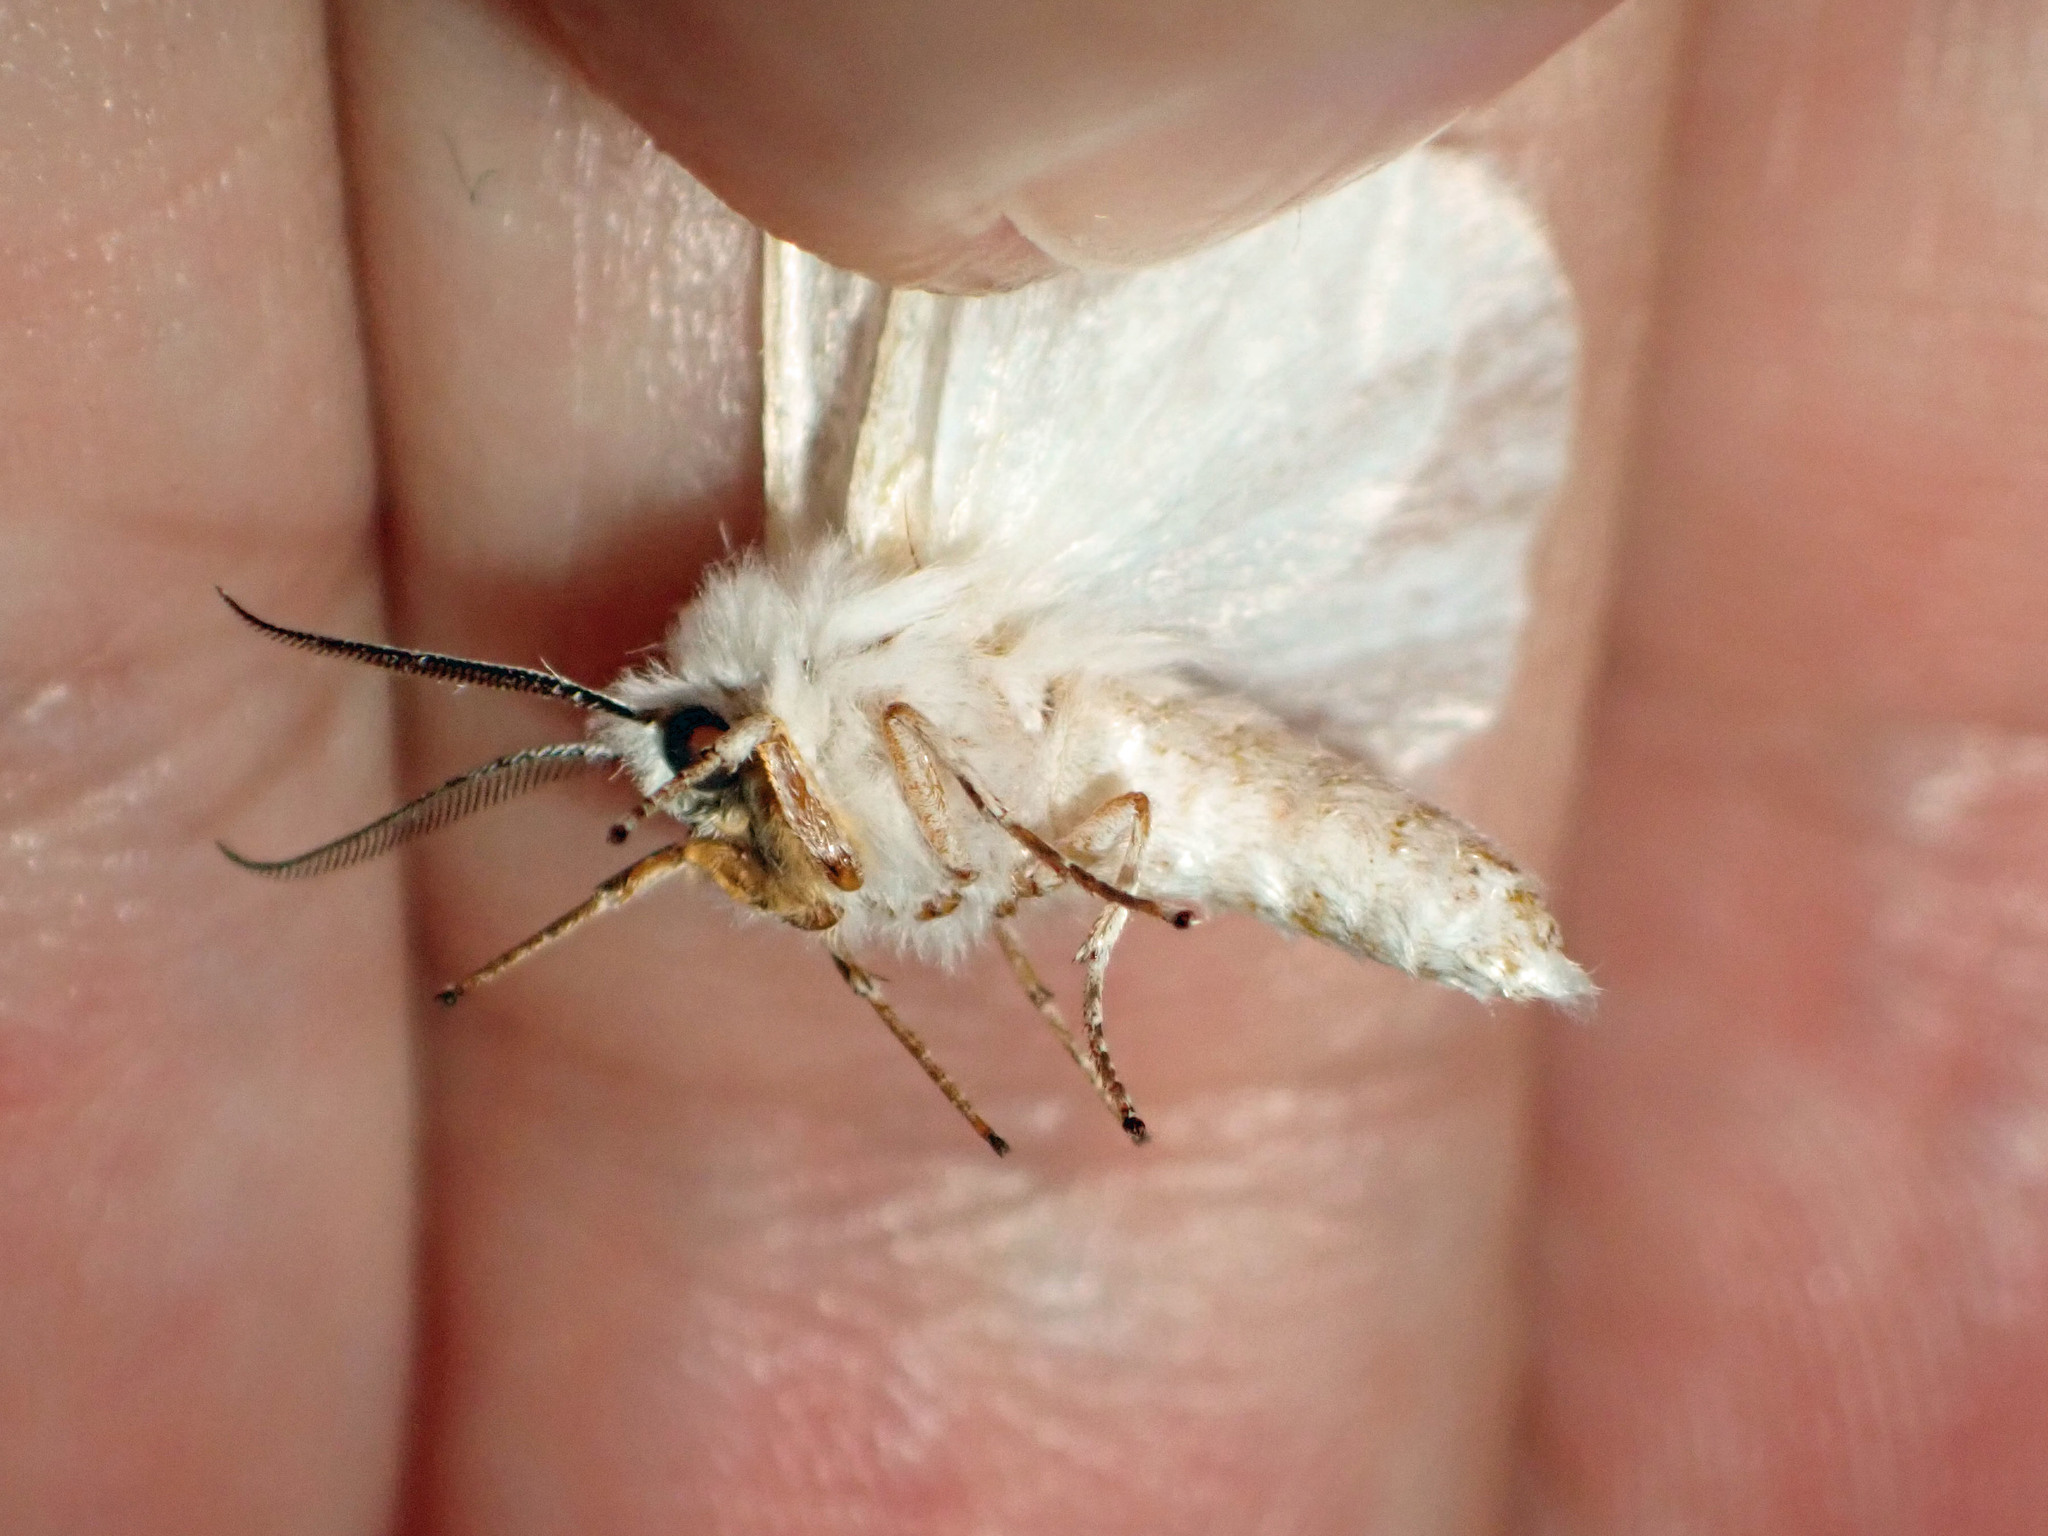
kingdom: Animalia
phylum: Arthropoda
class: Insecta
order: Lepidoptera
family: Erebidae
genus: Hyphantria
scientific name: Hyphantria cunea
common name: American white moth
